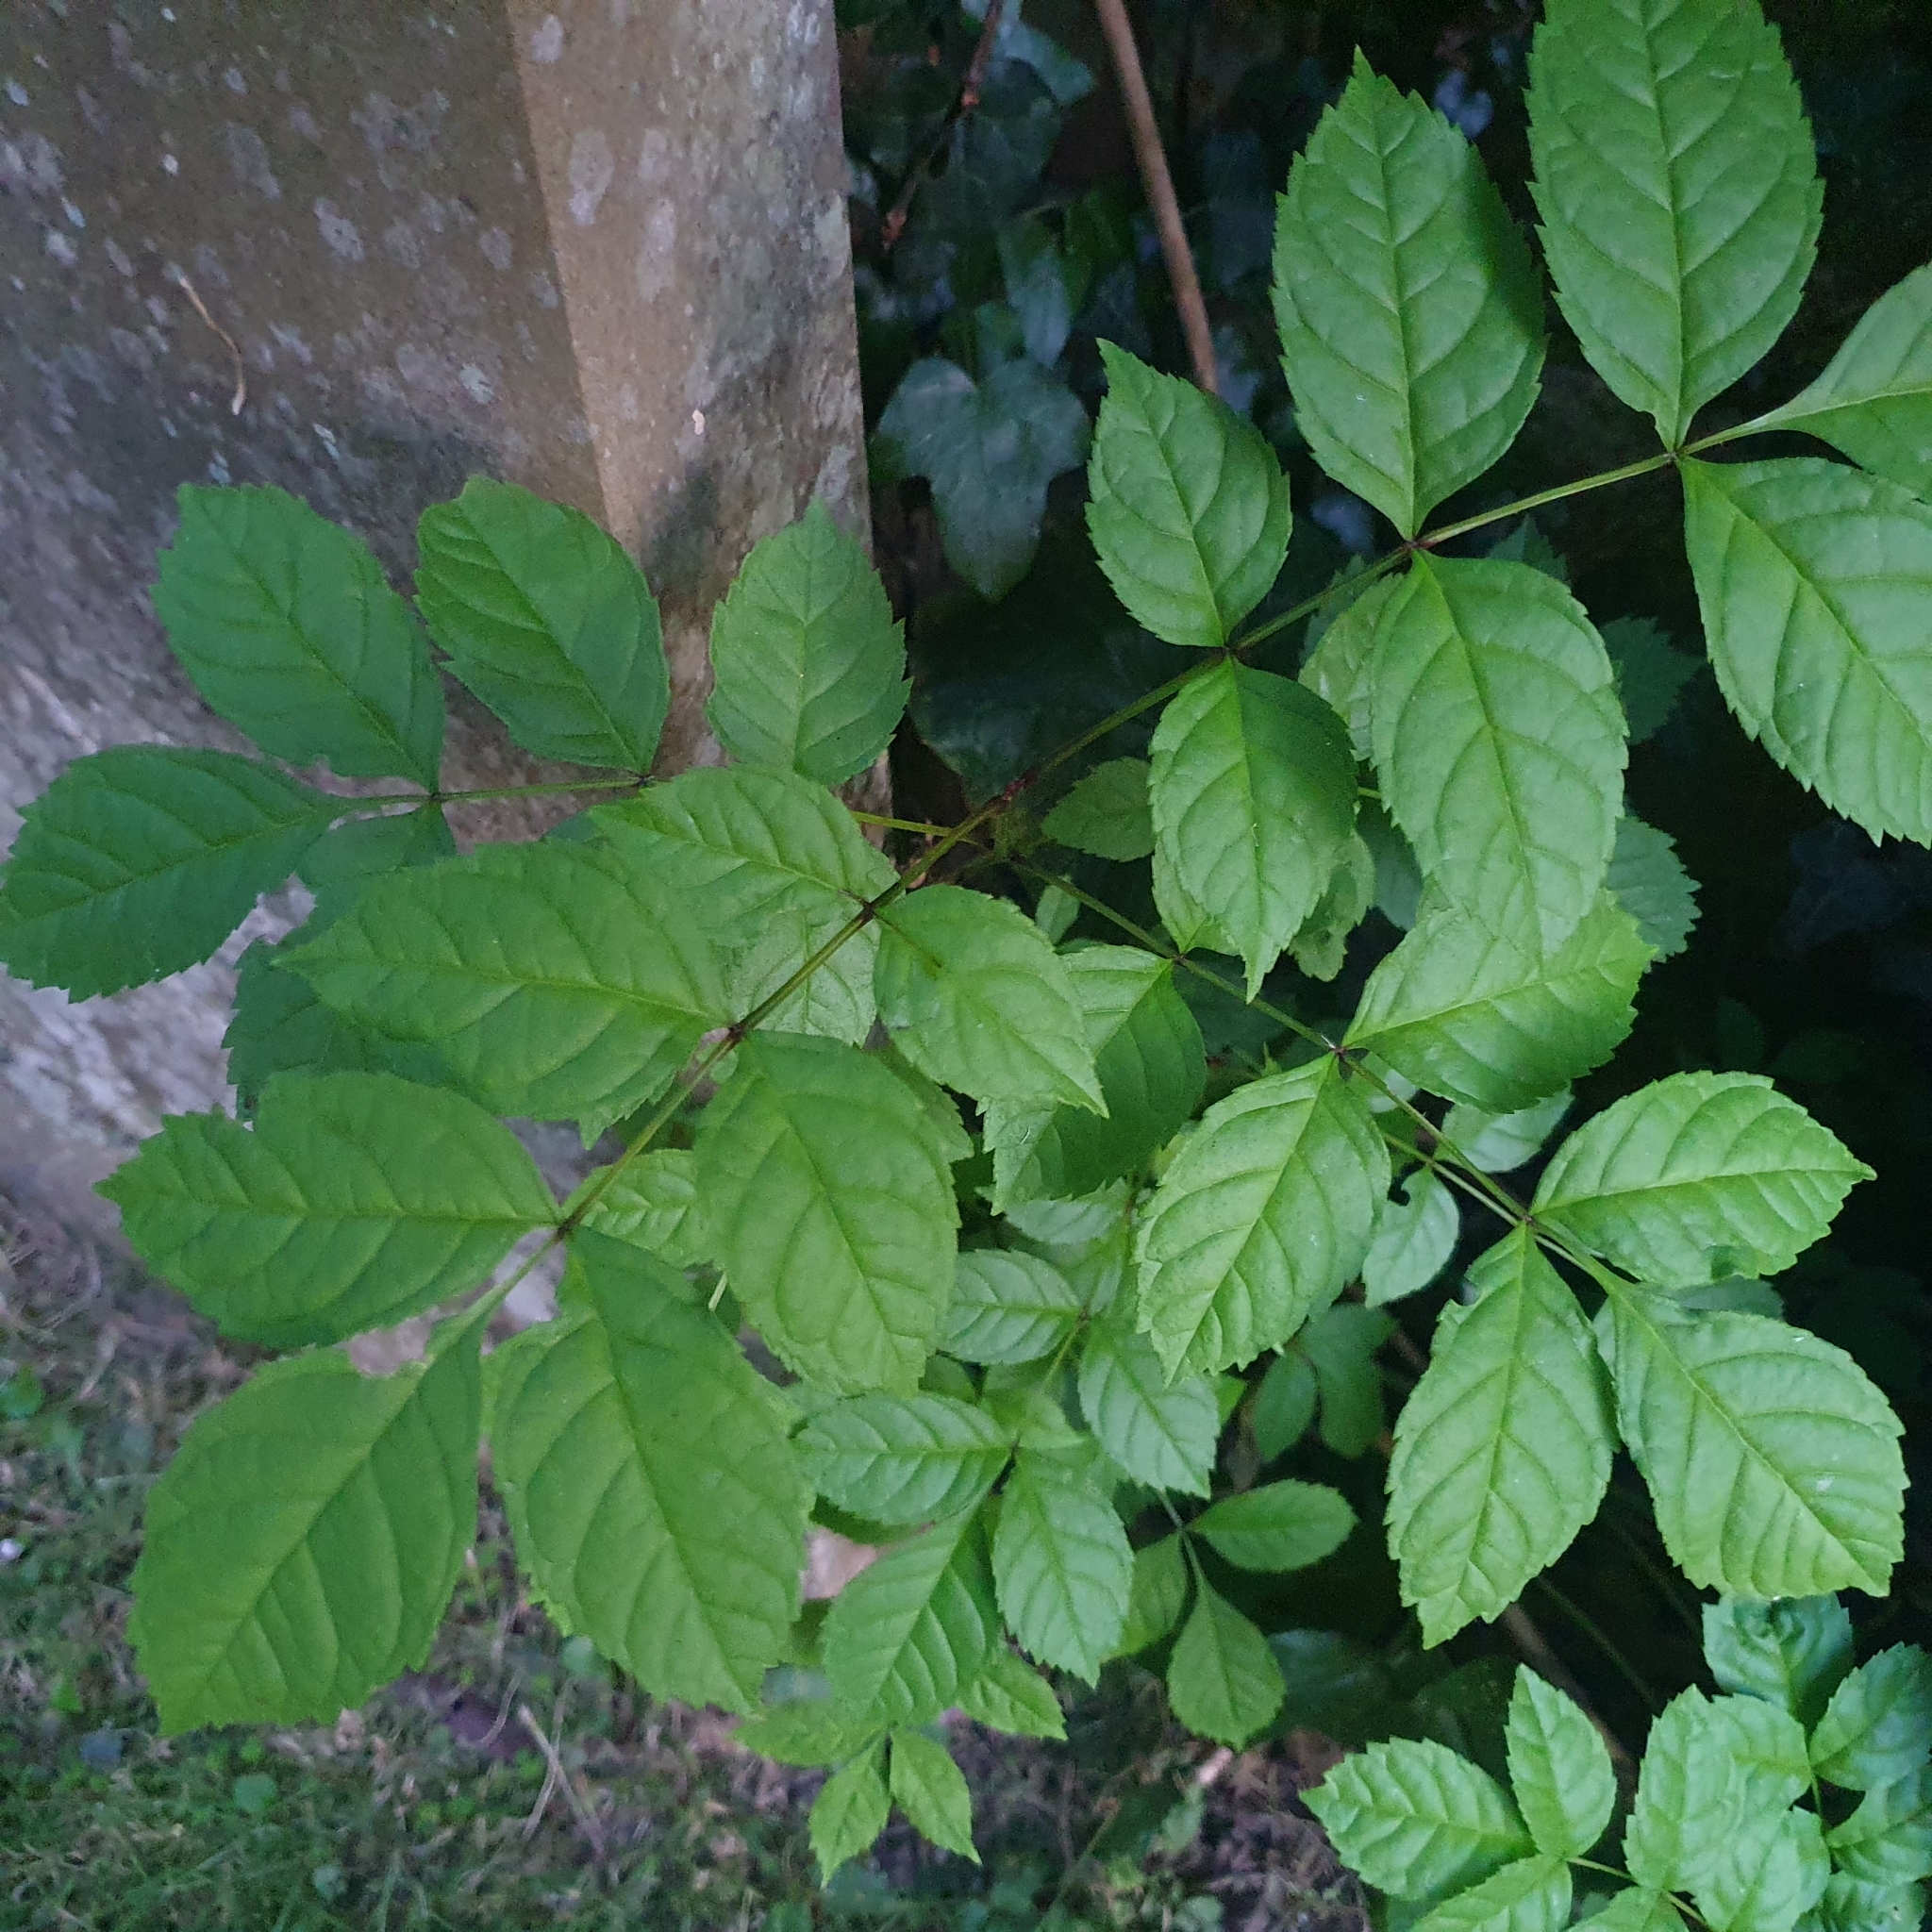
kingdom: Plantae
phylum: Tracheophyta
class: Magnoliopsida
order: Lamiales
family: Oleaceae
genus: Fraxinus
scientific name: Fraxinus excelsior
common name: European ash
